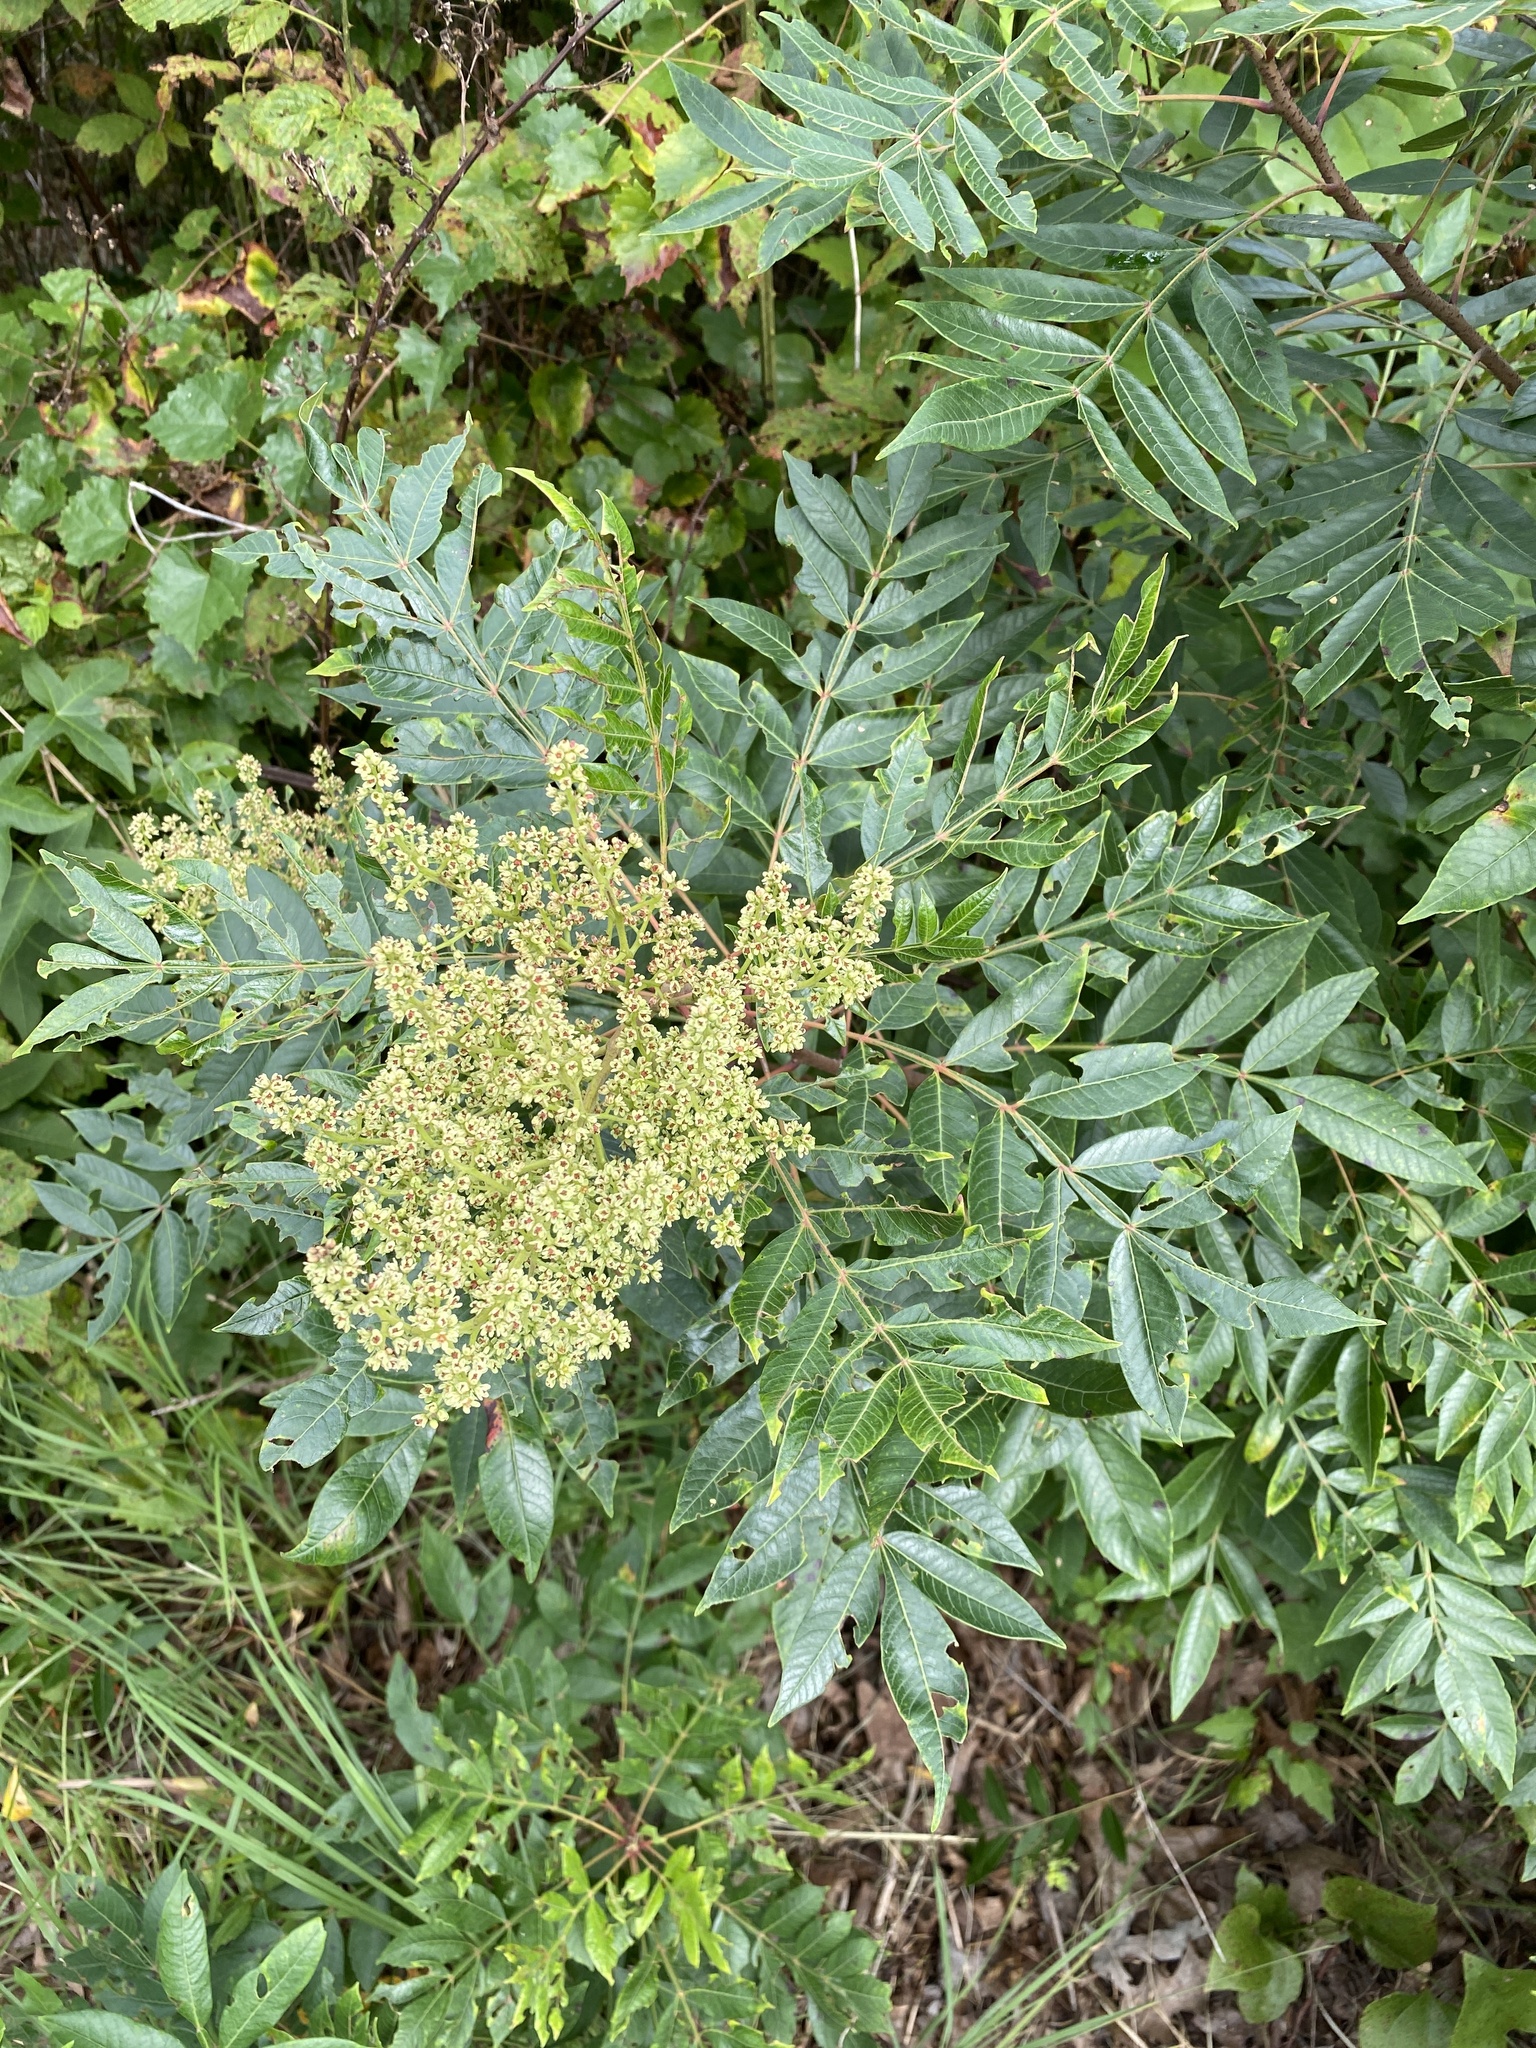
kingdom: Plantae
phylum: Tracheophyta
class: Magnoliopsida
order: Sapindales
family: Anacardiaceae
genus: Rhus
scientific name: Rhus copallina
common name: Shining sumac
